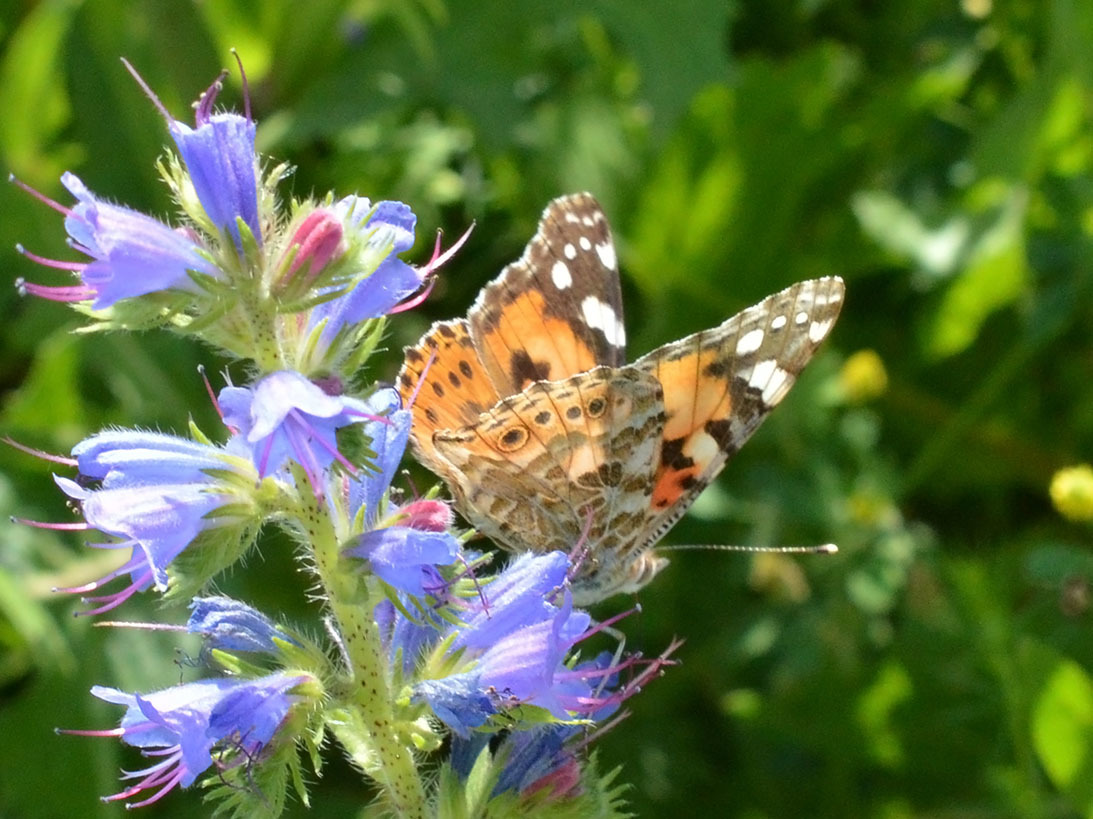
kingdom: Animalia
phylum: Arthropoda
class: Insecta
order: Lepidoptera
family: Nymphalidae
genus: Vanessa
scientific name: Vanessa cardui
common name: Painted lady
